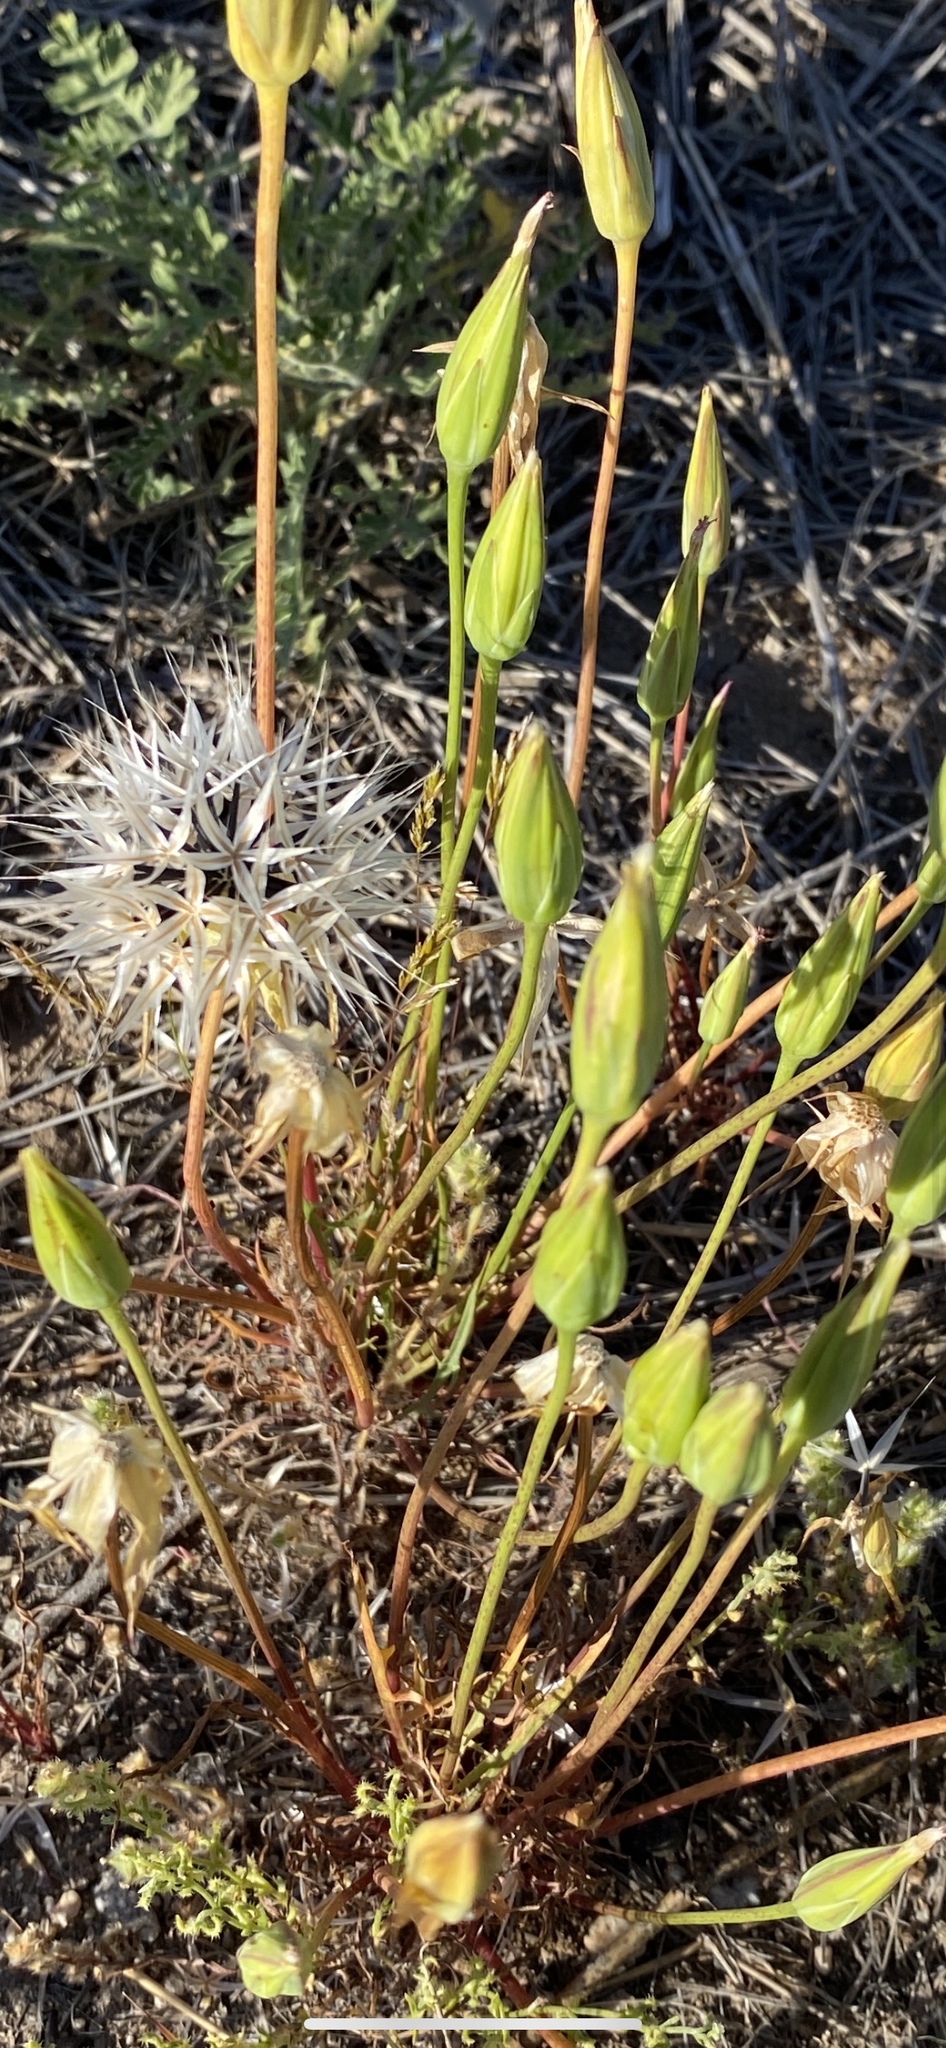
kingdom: Plantae
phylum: Tracheophyta
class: Magnoliopsida
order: Asterales
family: Asteraceae
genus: Microseris
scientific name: Microseris lindleyi
